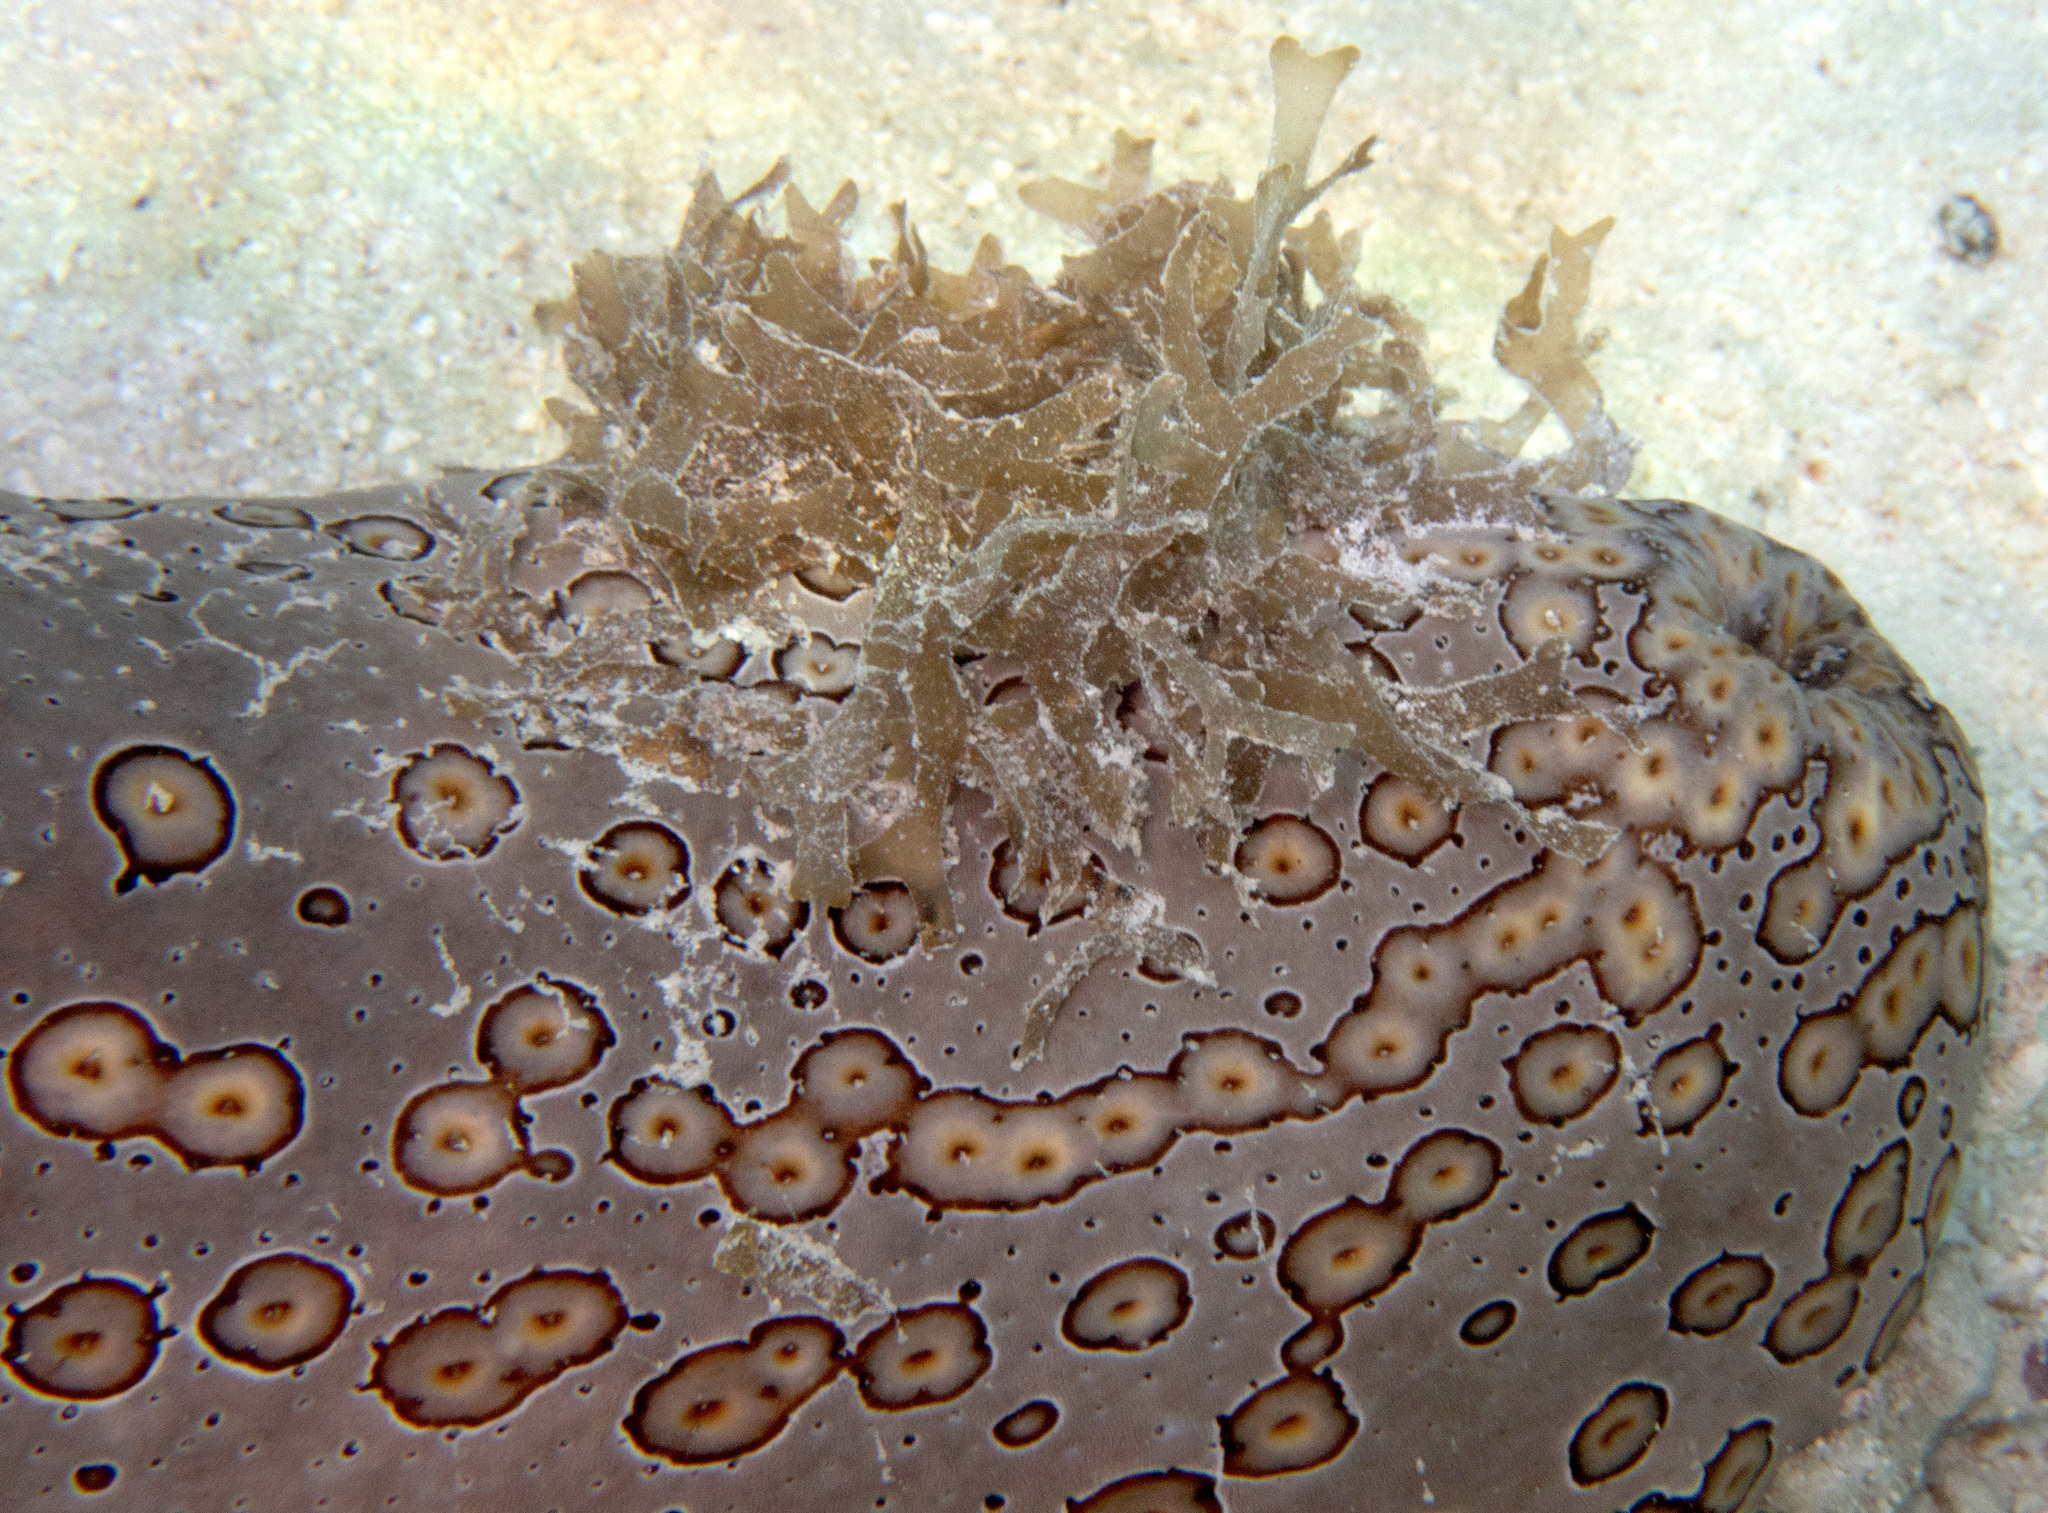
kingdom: Animalia
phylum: Echinodermata
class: Holothuroidea
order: Holothuriida
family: Holothuriidae
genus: Bohadschia
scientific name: Bohadschia argus
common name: Leopardfish
